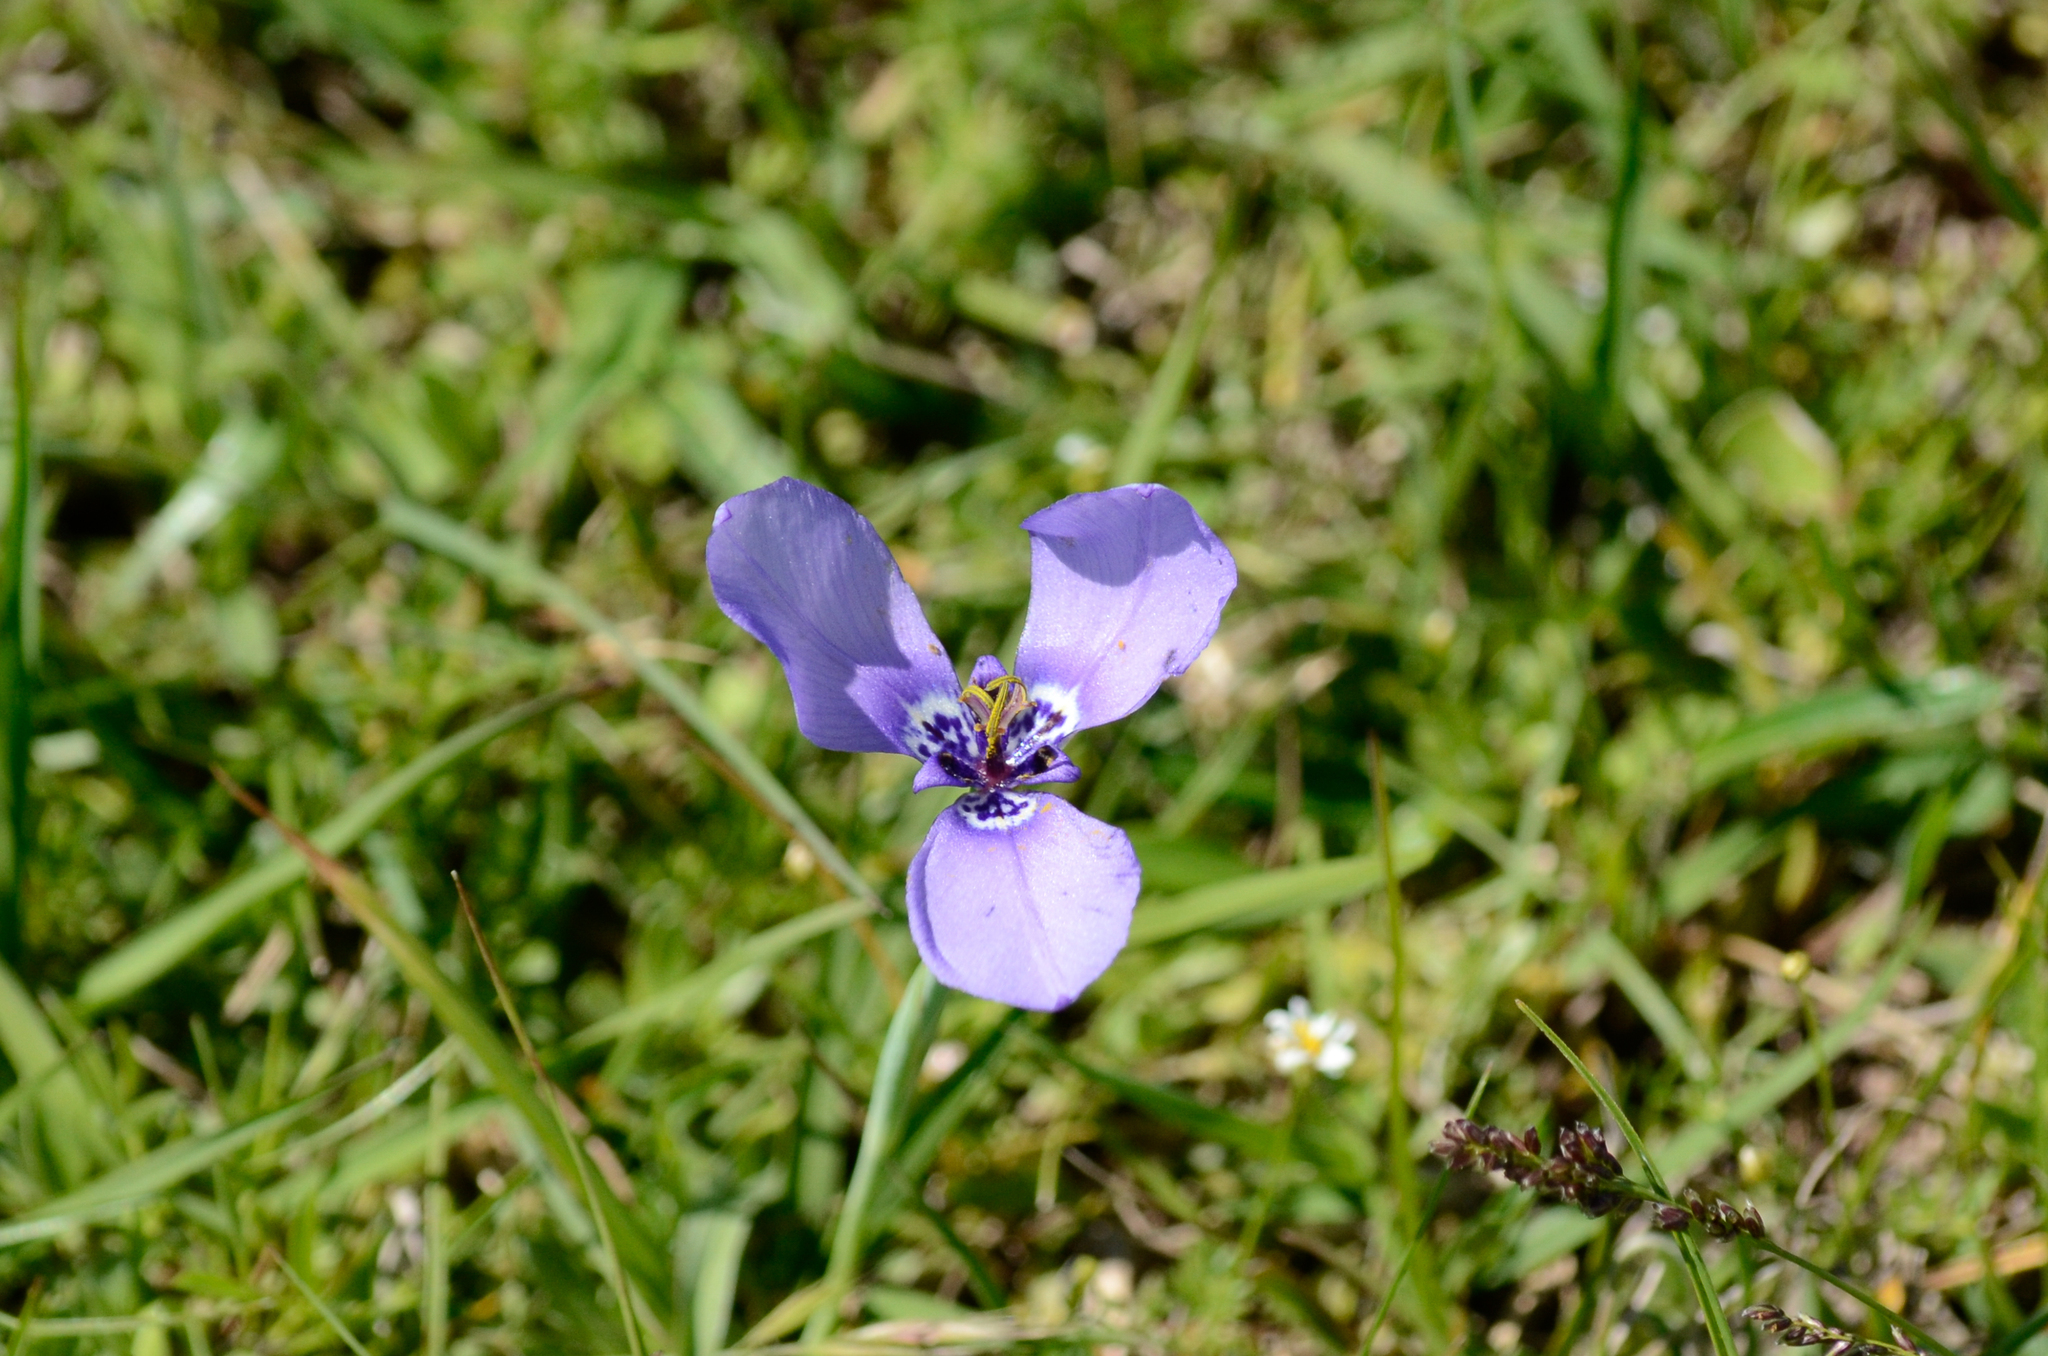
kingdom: Plantae
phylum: Tracheophyta
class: Liliopsida
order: Asparagales
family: Iridaceae
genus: Herbertia
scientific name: Herbertia lahue
